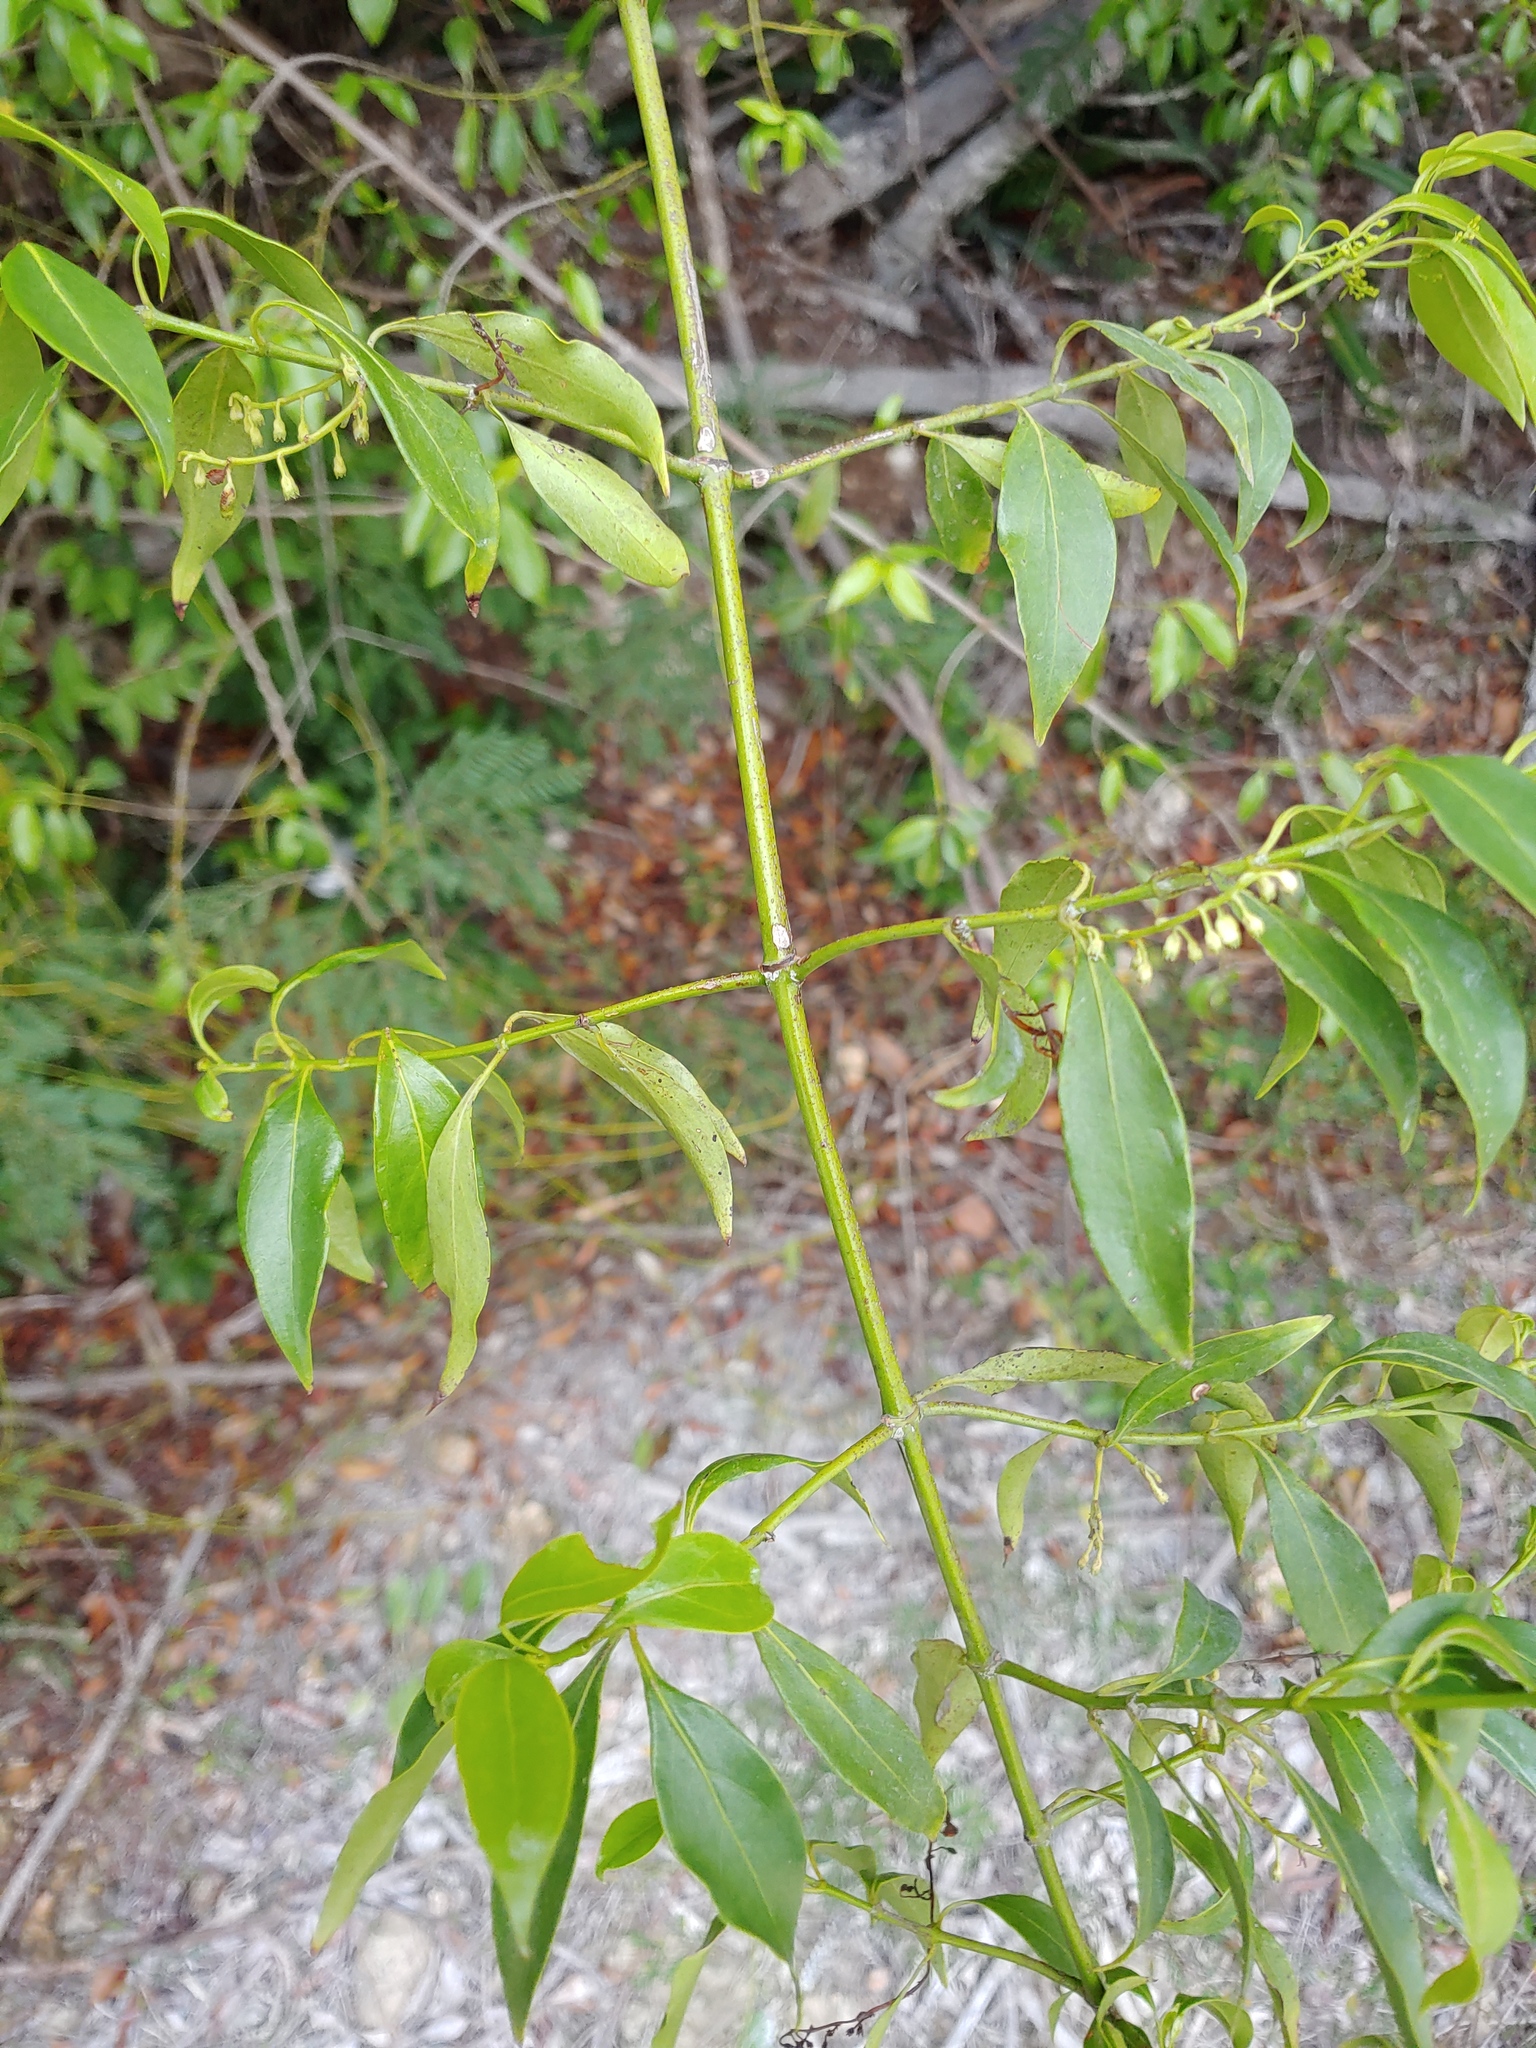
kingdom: Plantae
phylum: Tracheophyta
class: Magnoliopsida
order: Gentianales
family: Rubiaceae
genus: Chiococca
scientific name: Chiococca alba
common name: Snowberry
